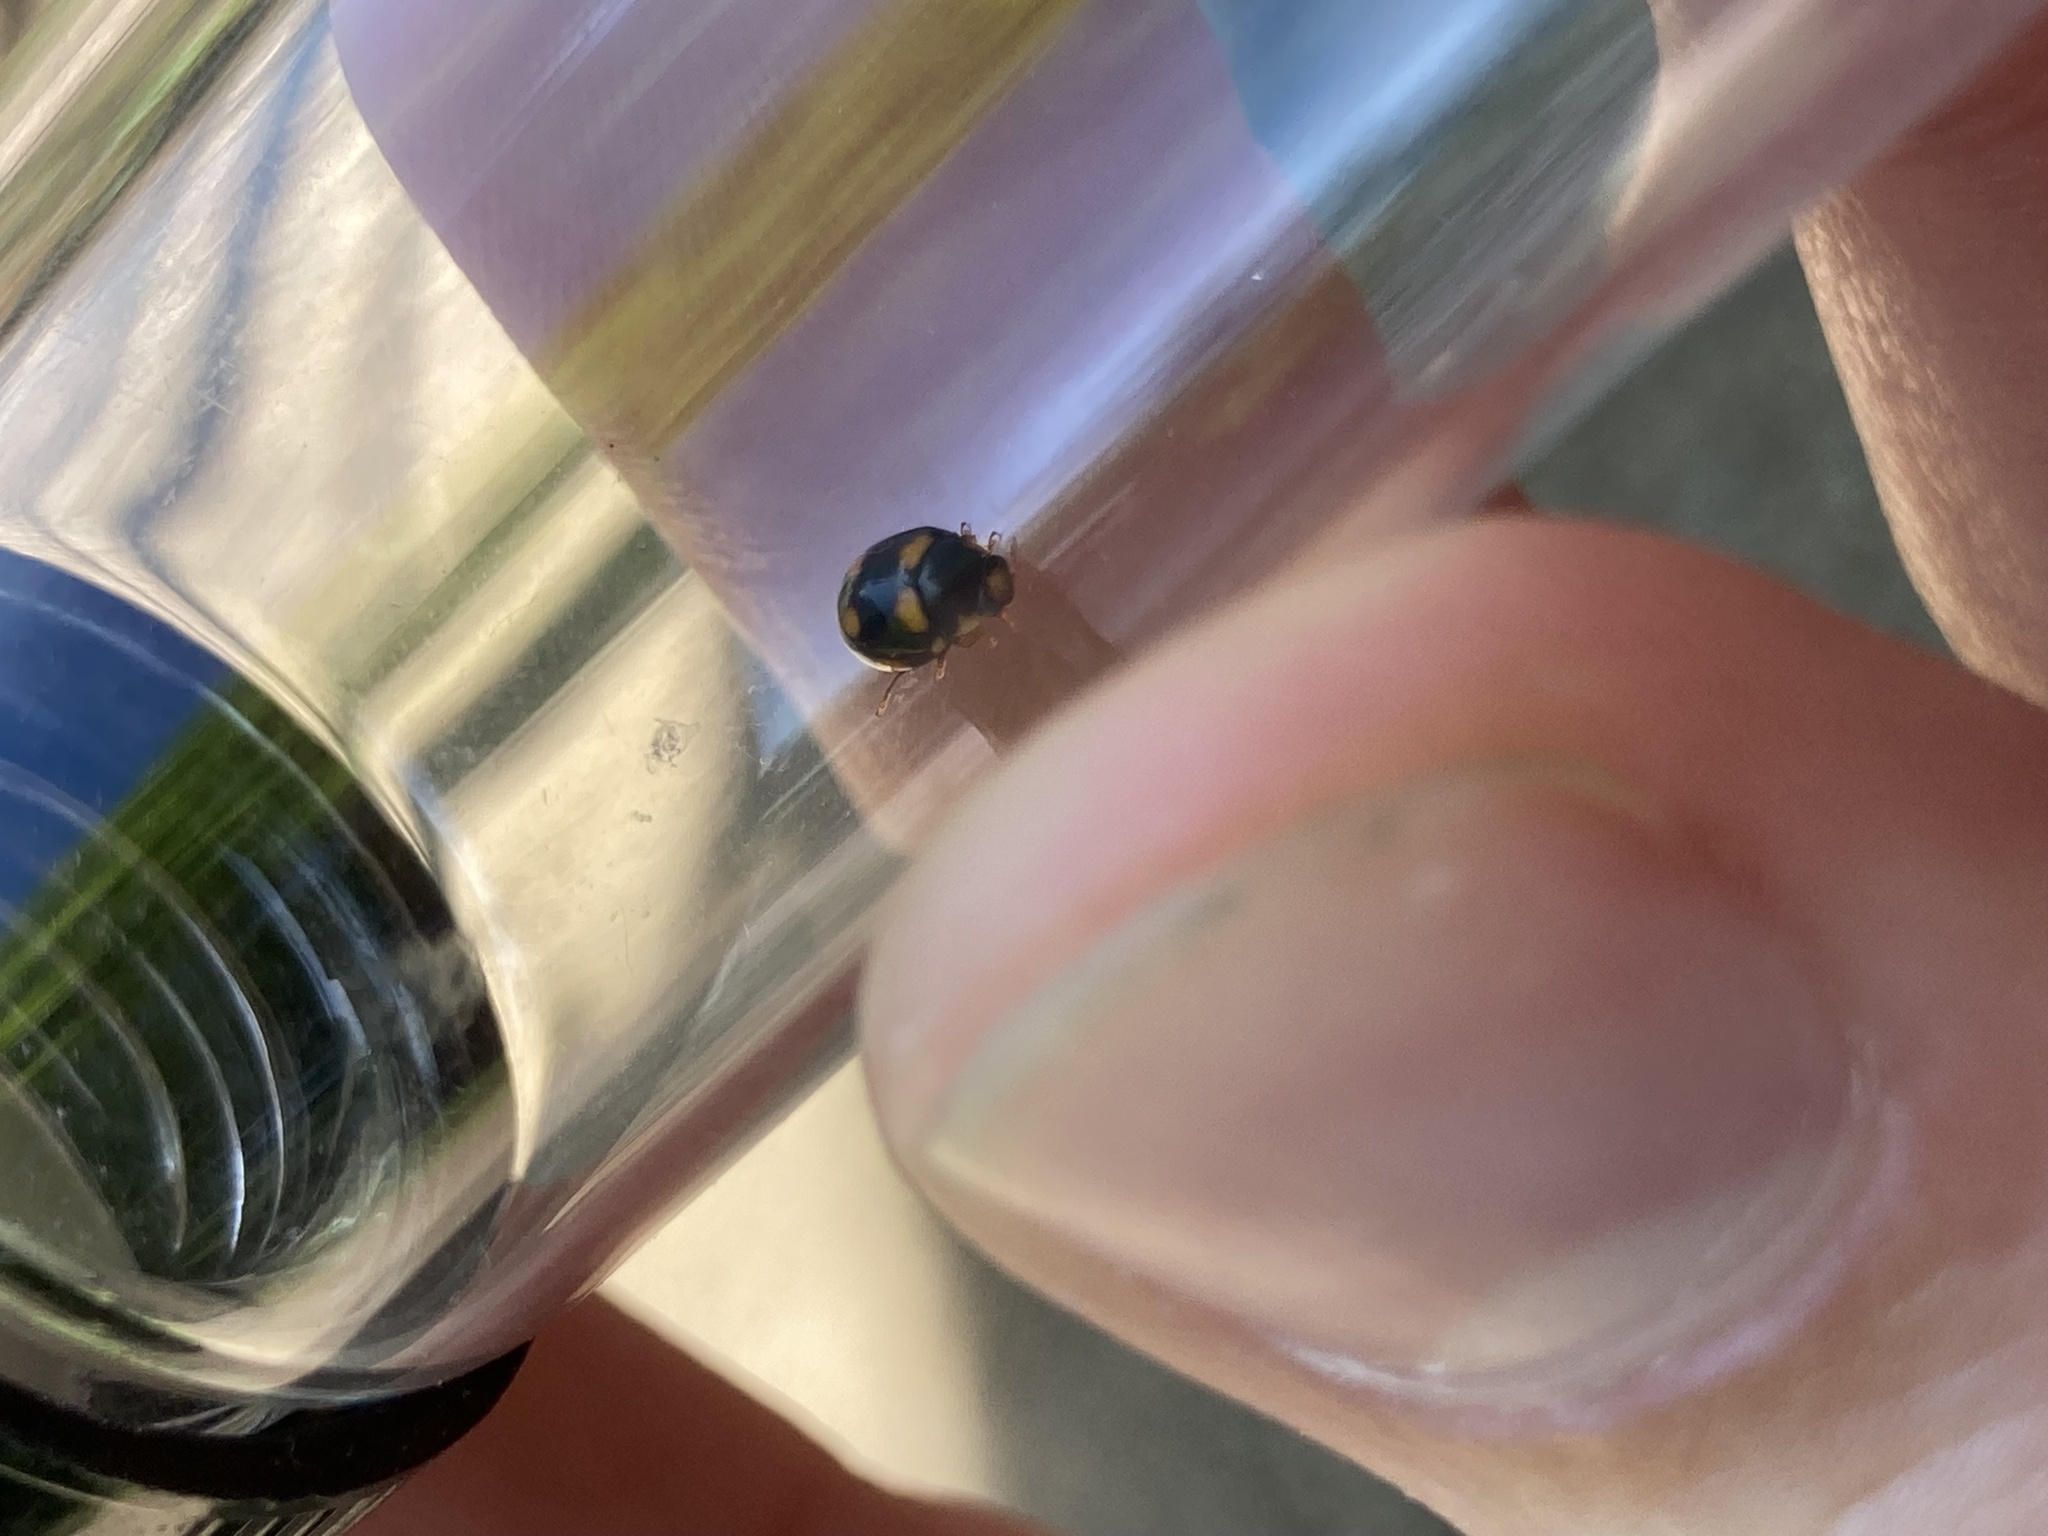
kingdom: Animalia
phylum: Arthropoda
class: Insecta
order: Coleoptera
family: Coccinellidae
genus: Brachiacantha
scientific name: Brachiacantha ursina
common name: Ursine spurleg lady beetle
